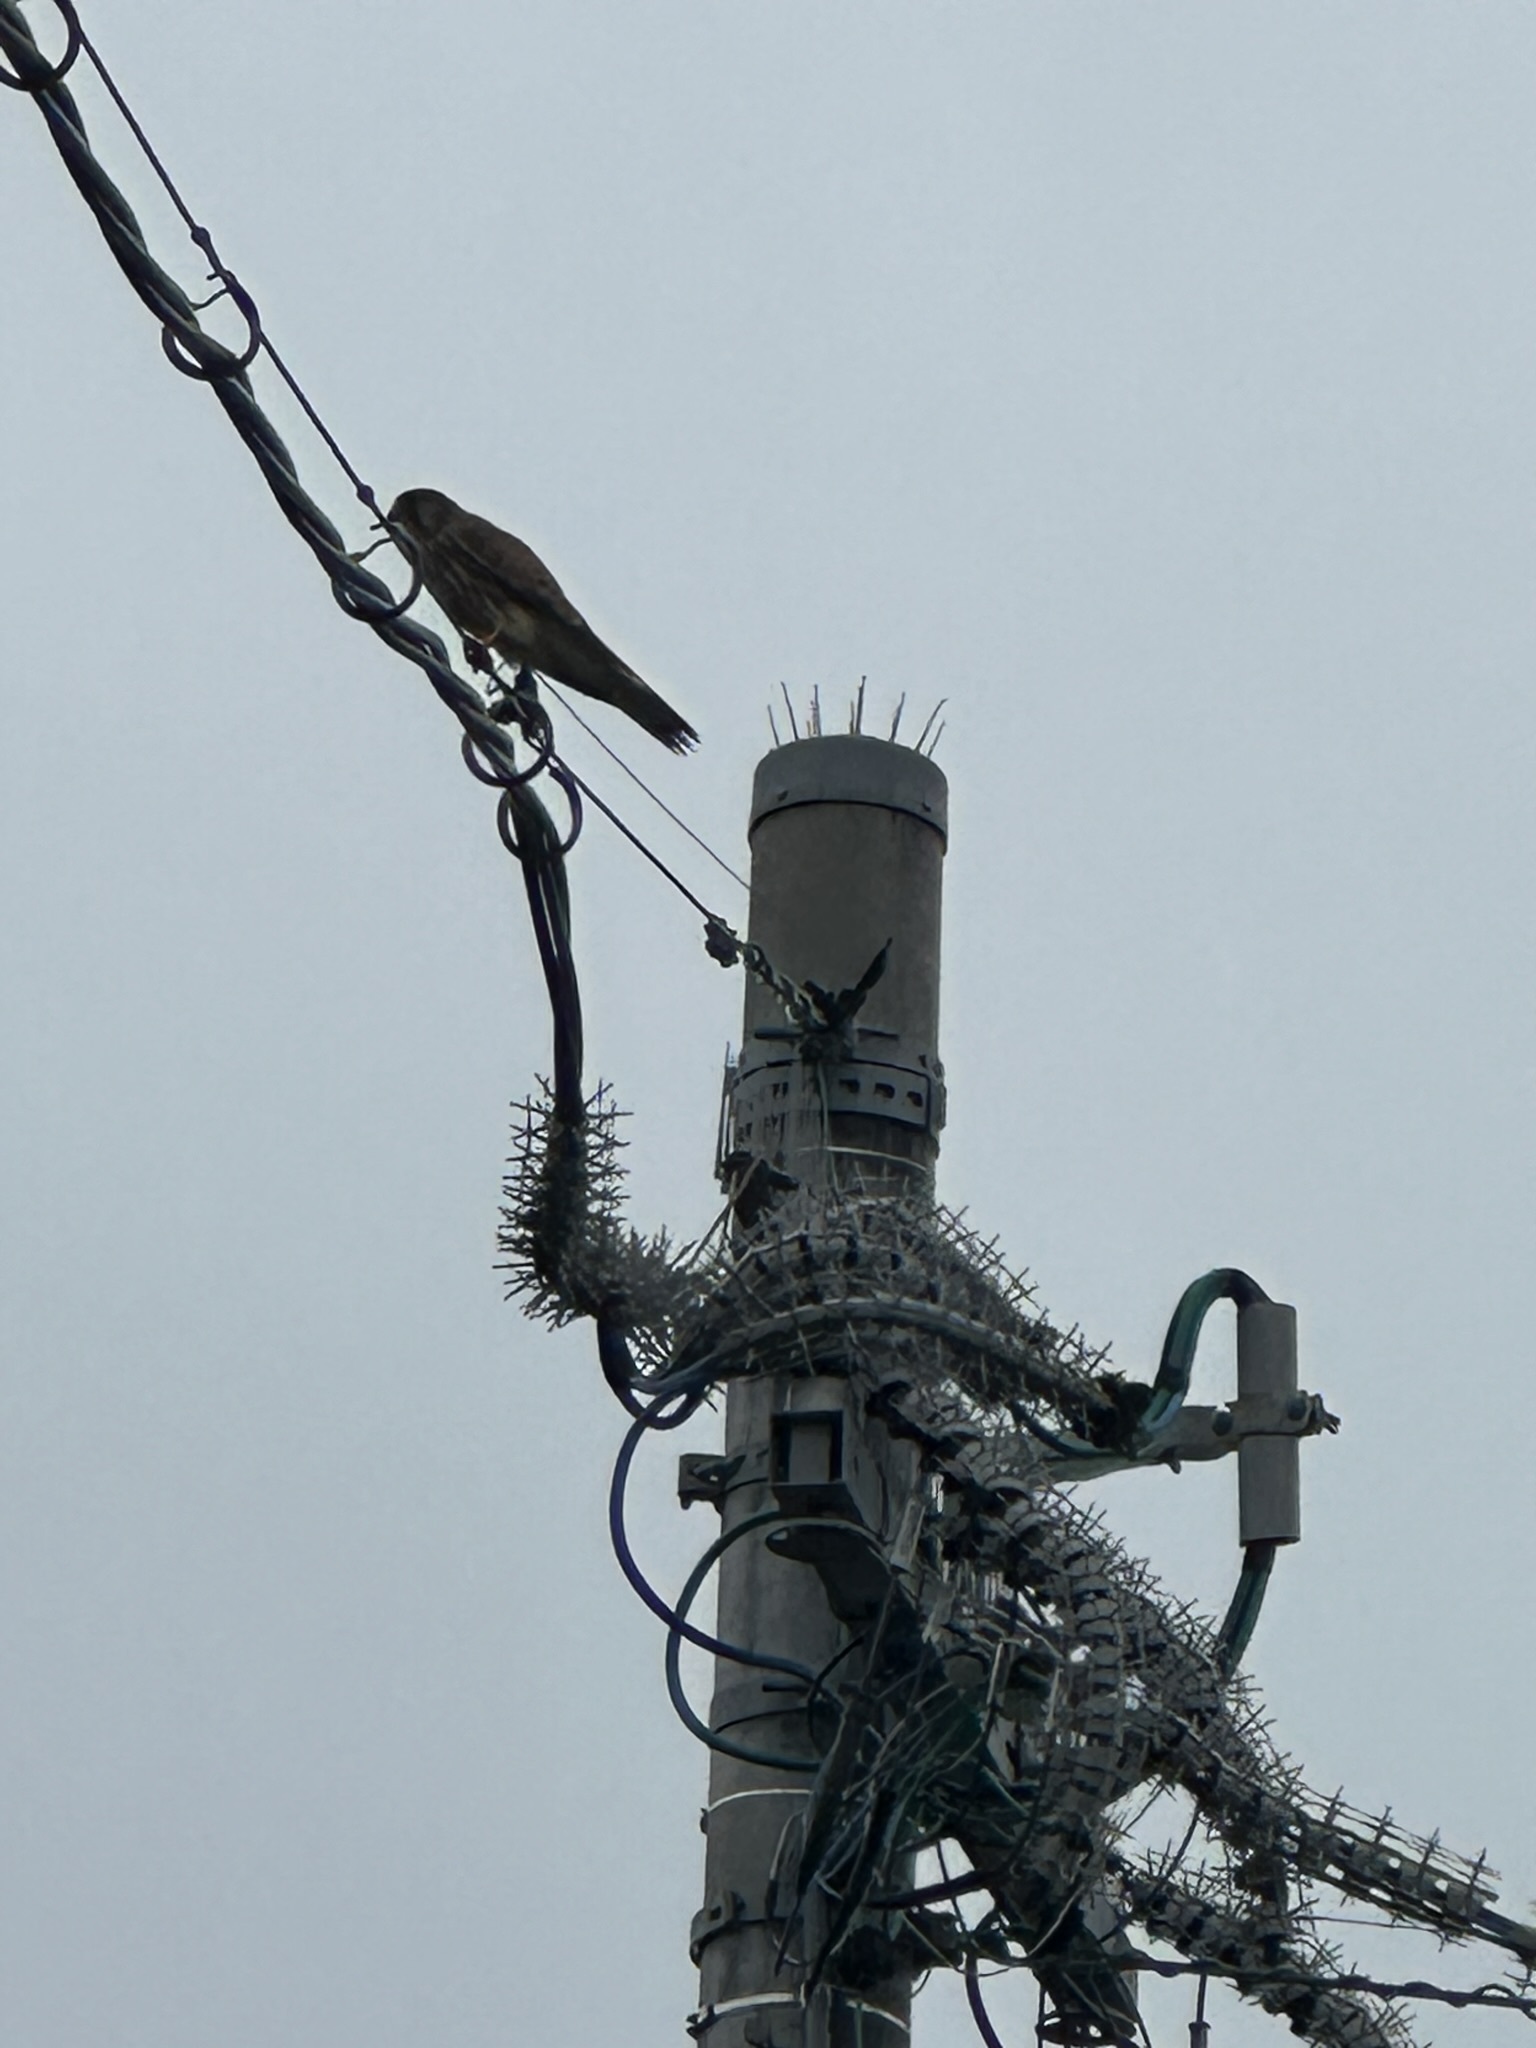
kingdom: Animalia
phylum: Chordata
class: Aves
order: Falconiformes
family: Falconidae
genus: Falco
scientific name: Falco tinnunculus
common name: Common kestrel
